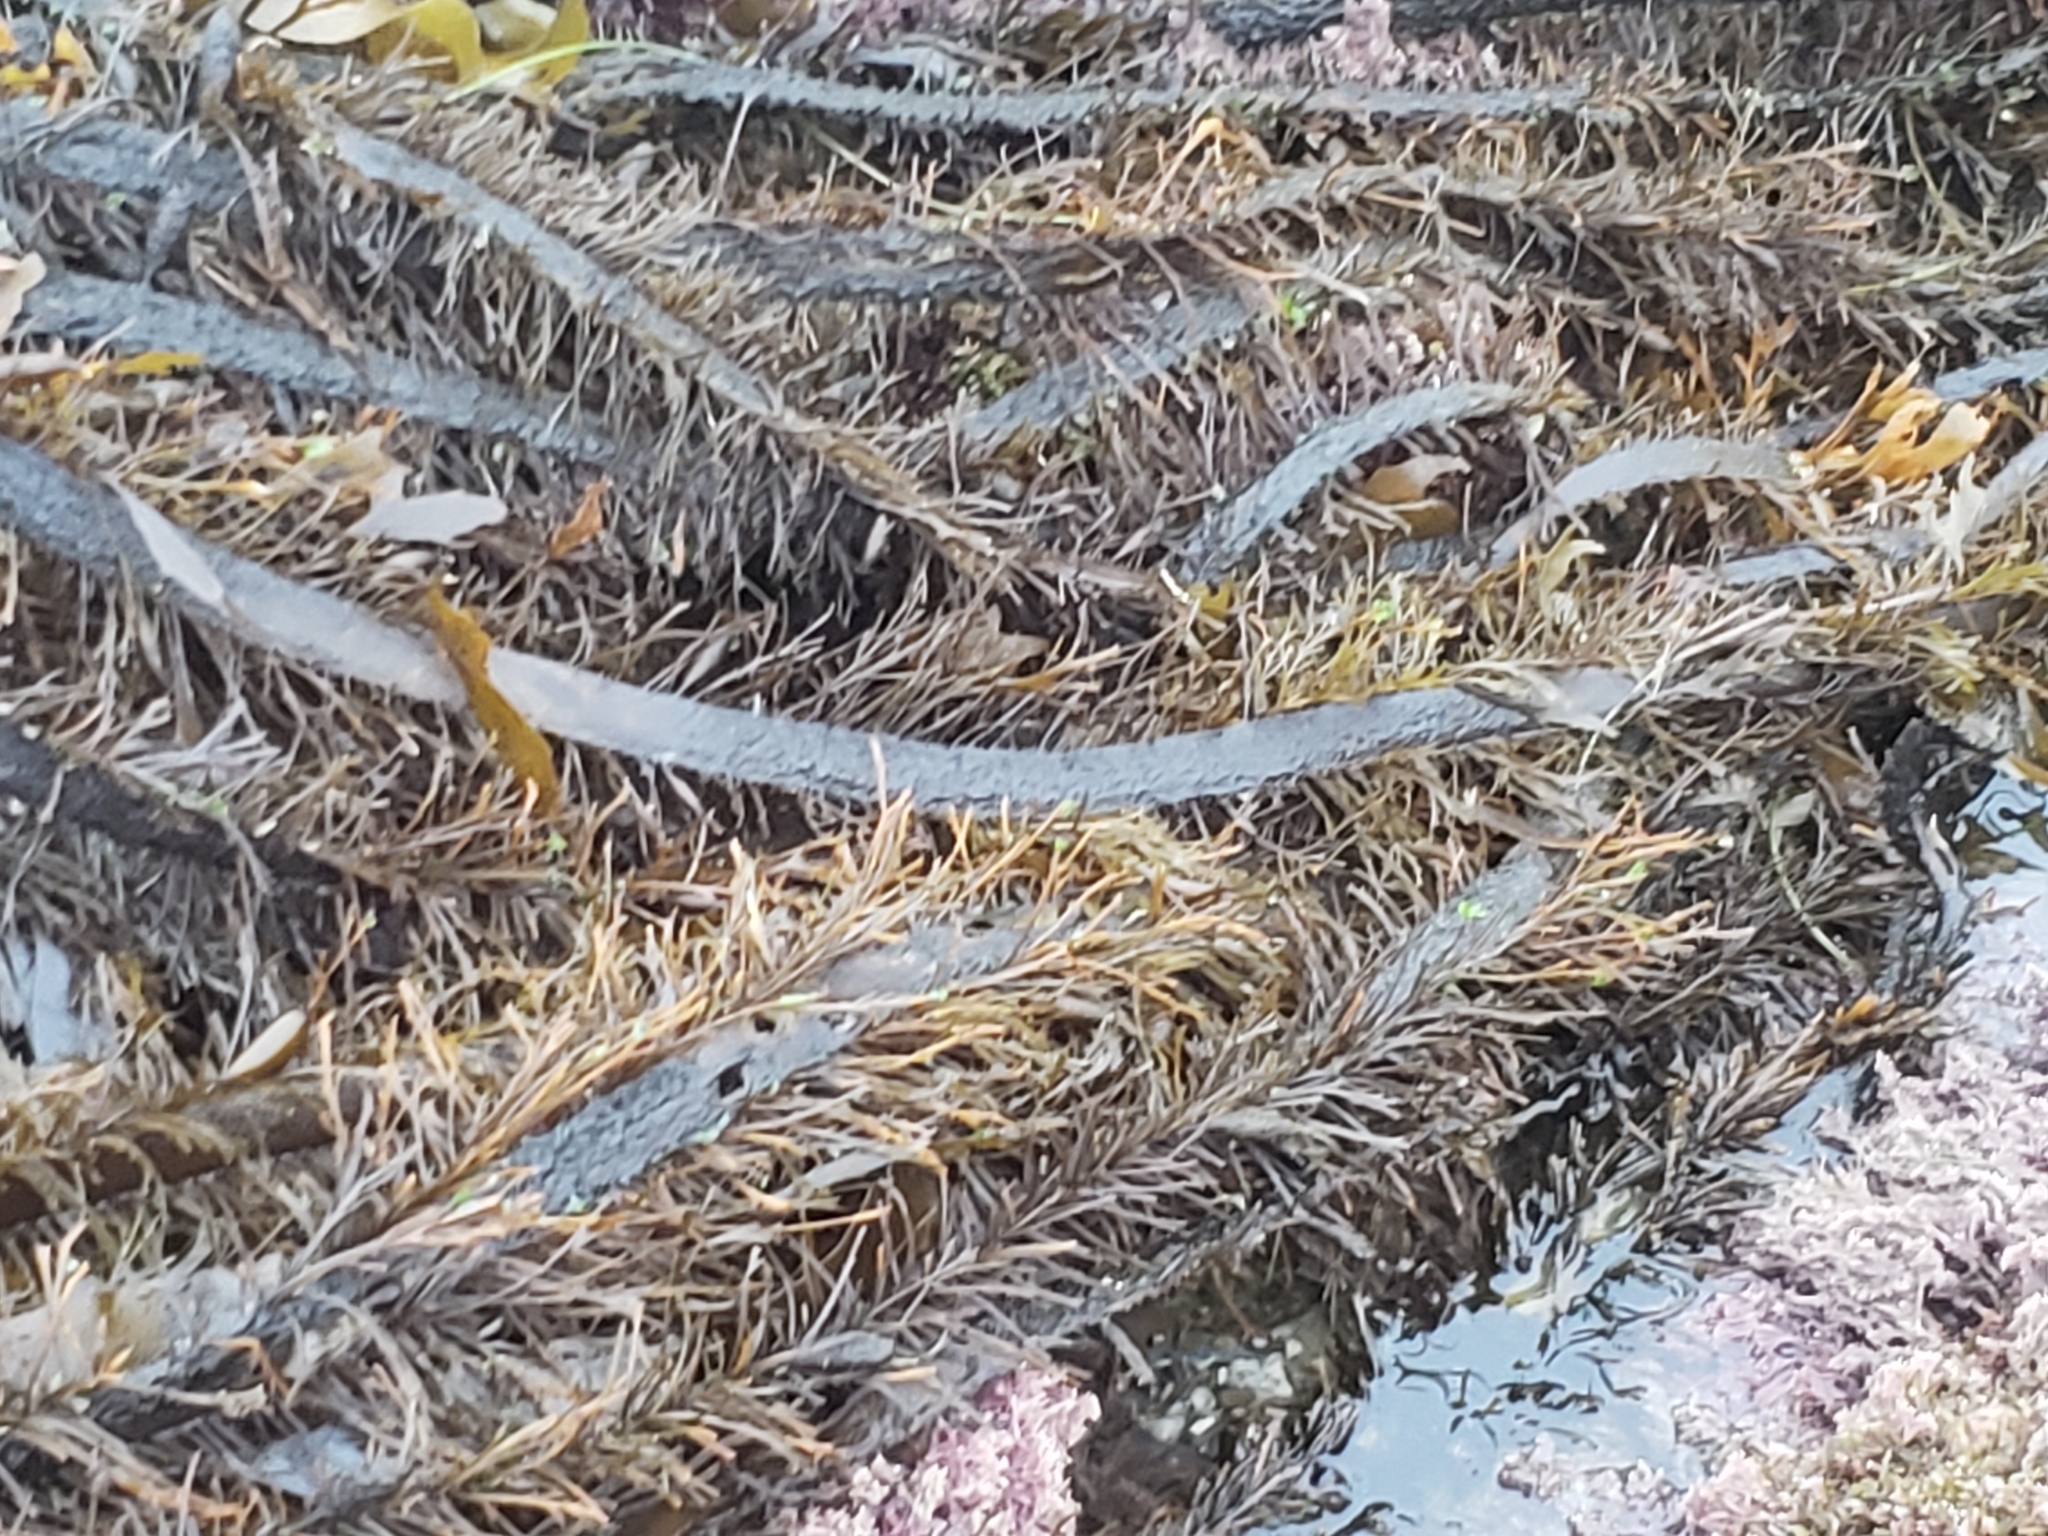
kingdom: Chromista
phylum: Ochrophyta
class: Phaeophyceae
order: Laminariales
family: Lessoniaceae
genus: Egregia
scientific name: Egregia menziesii
